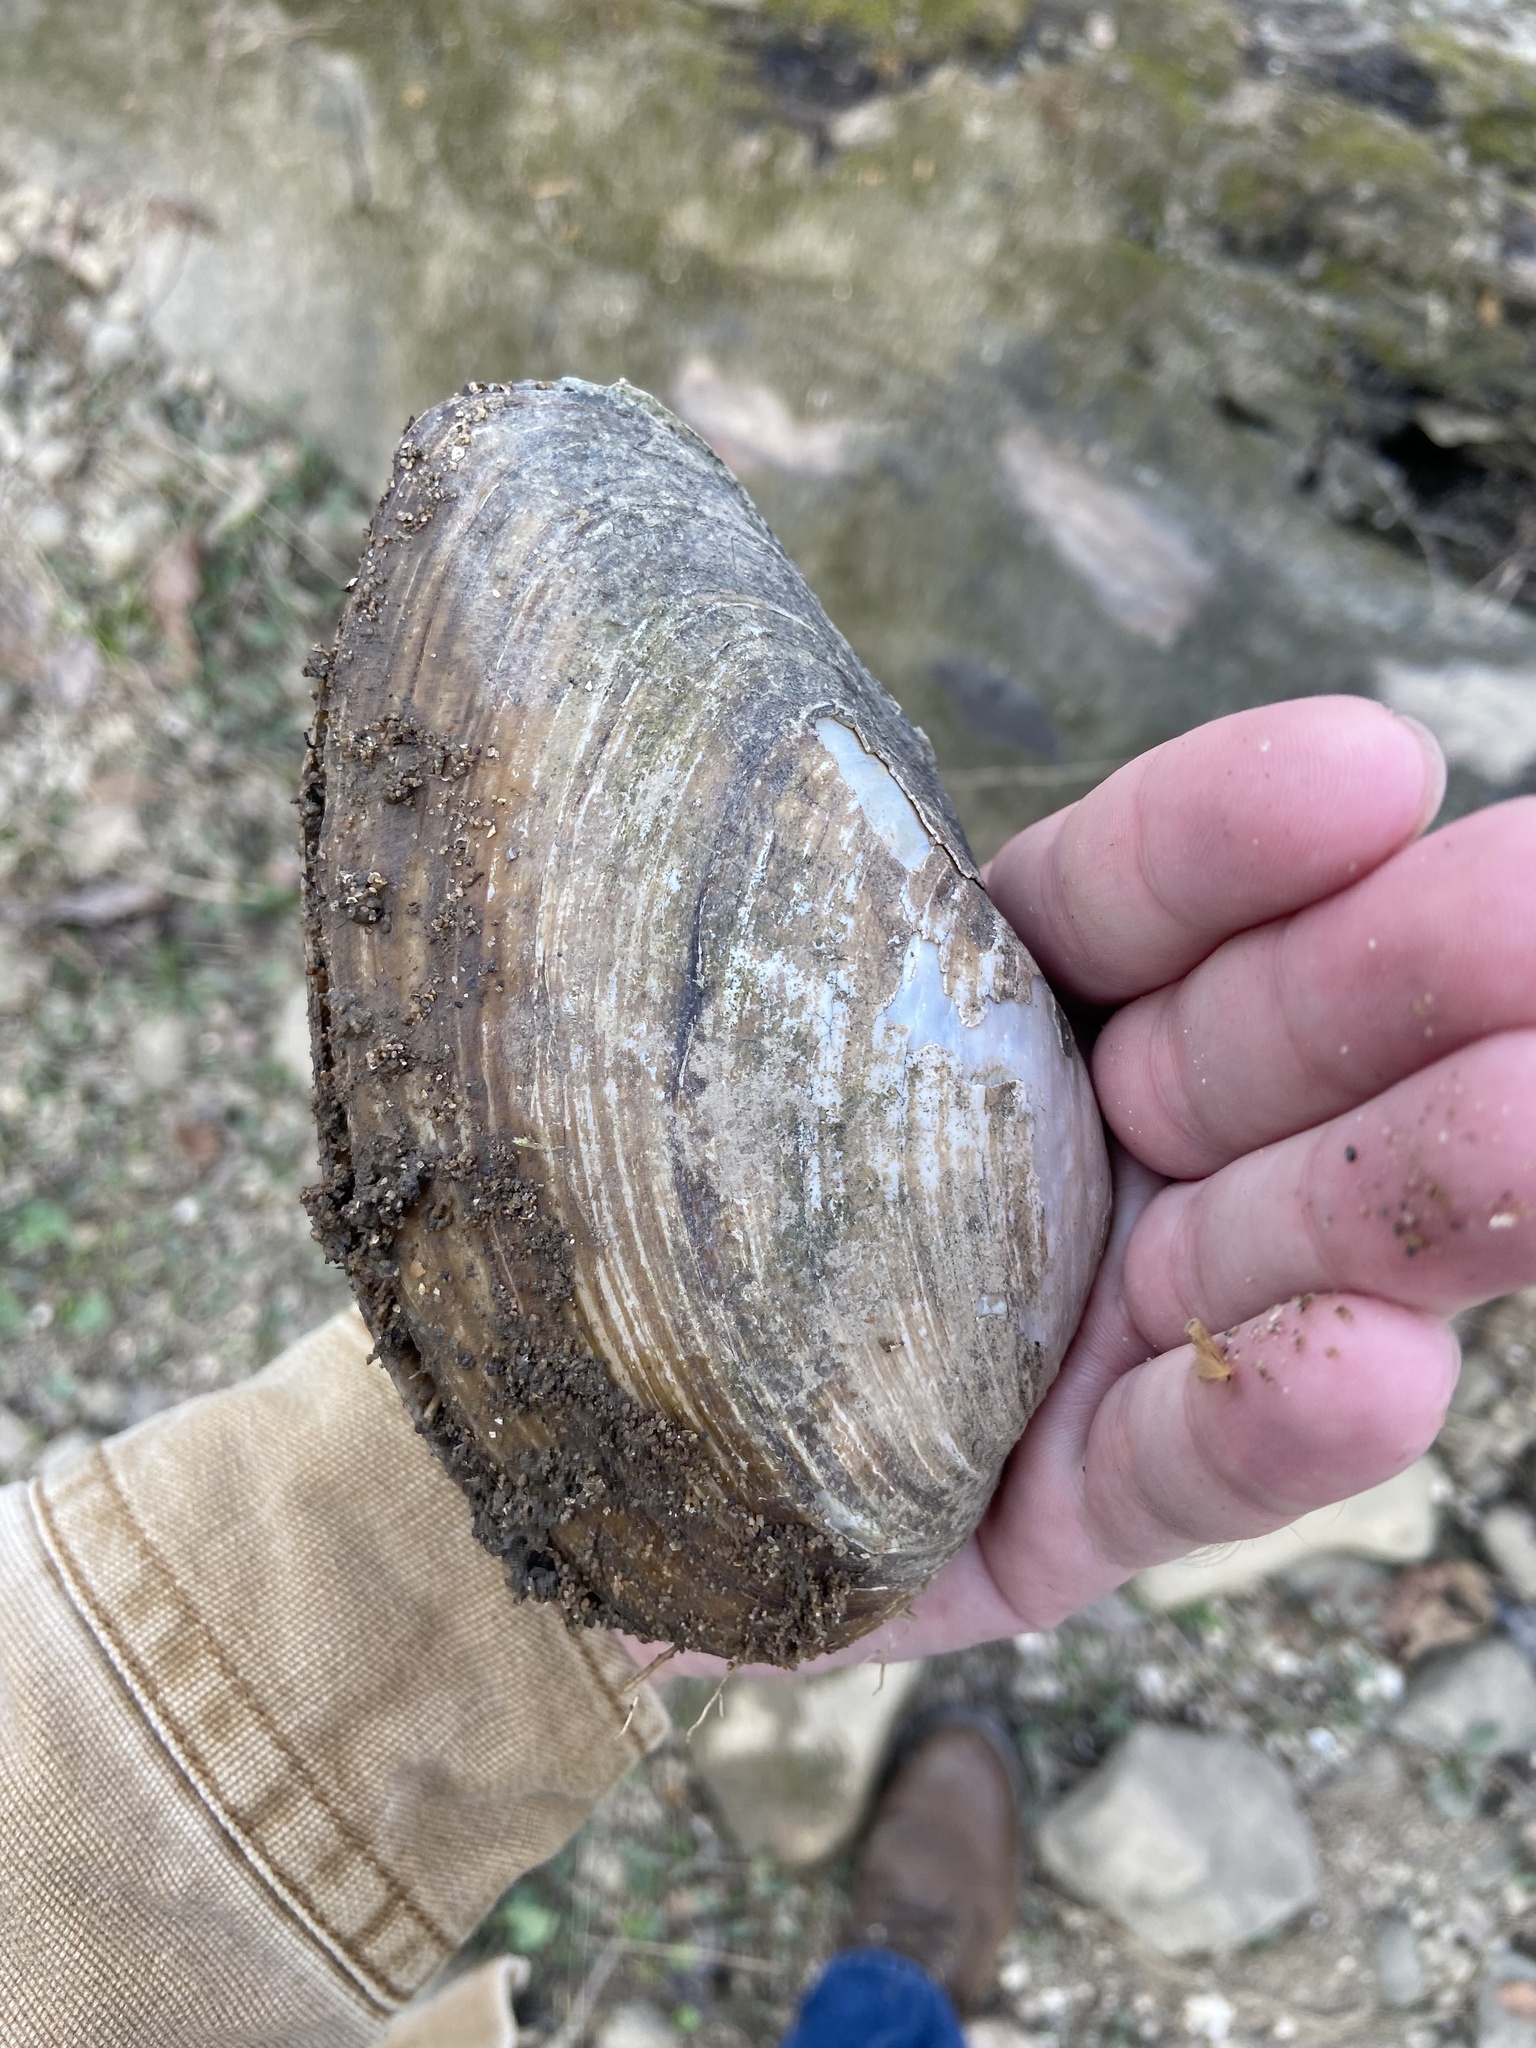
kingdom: Animalia
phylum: Mollusca
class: Bivalvia
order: Unionida
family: Unionidae
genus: Pyganodon
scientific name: Pyganodon grandis
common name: Giant floater
